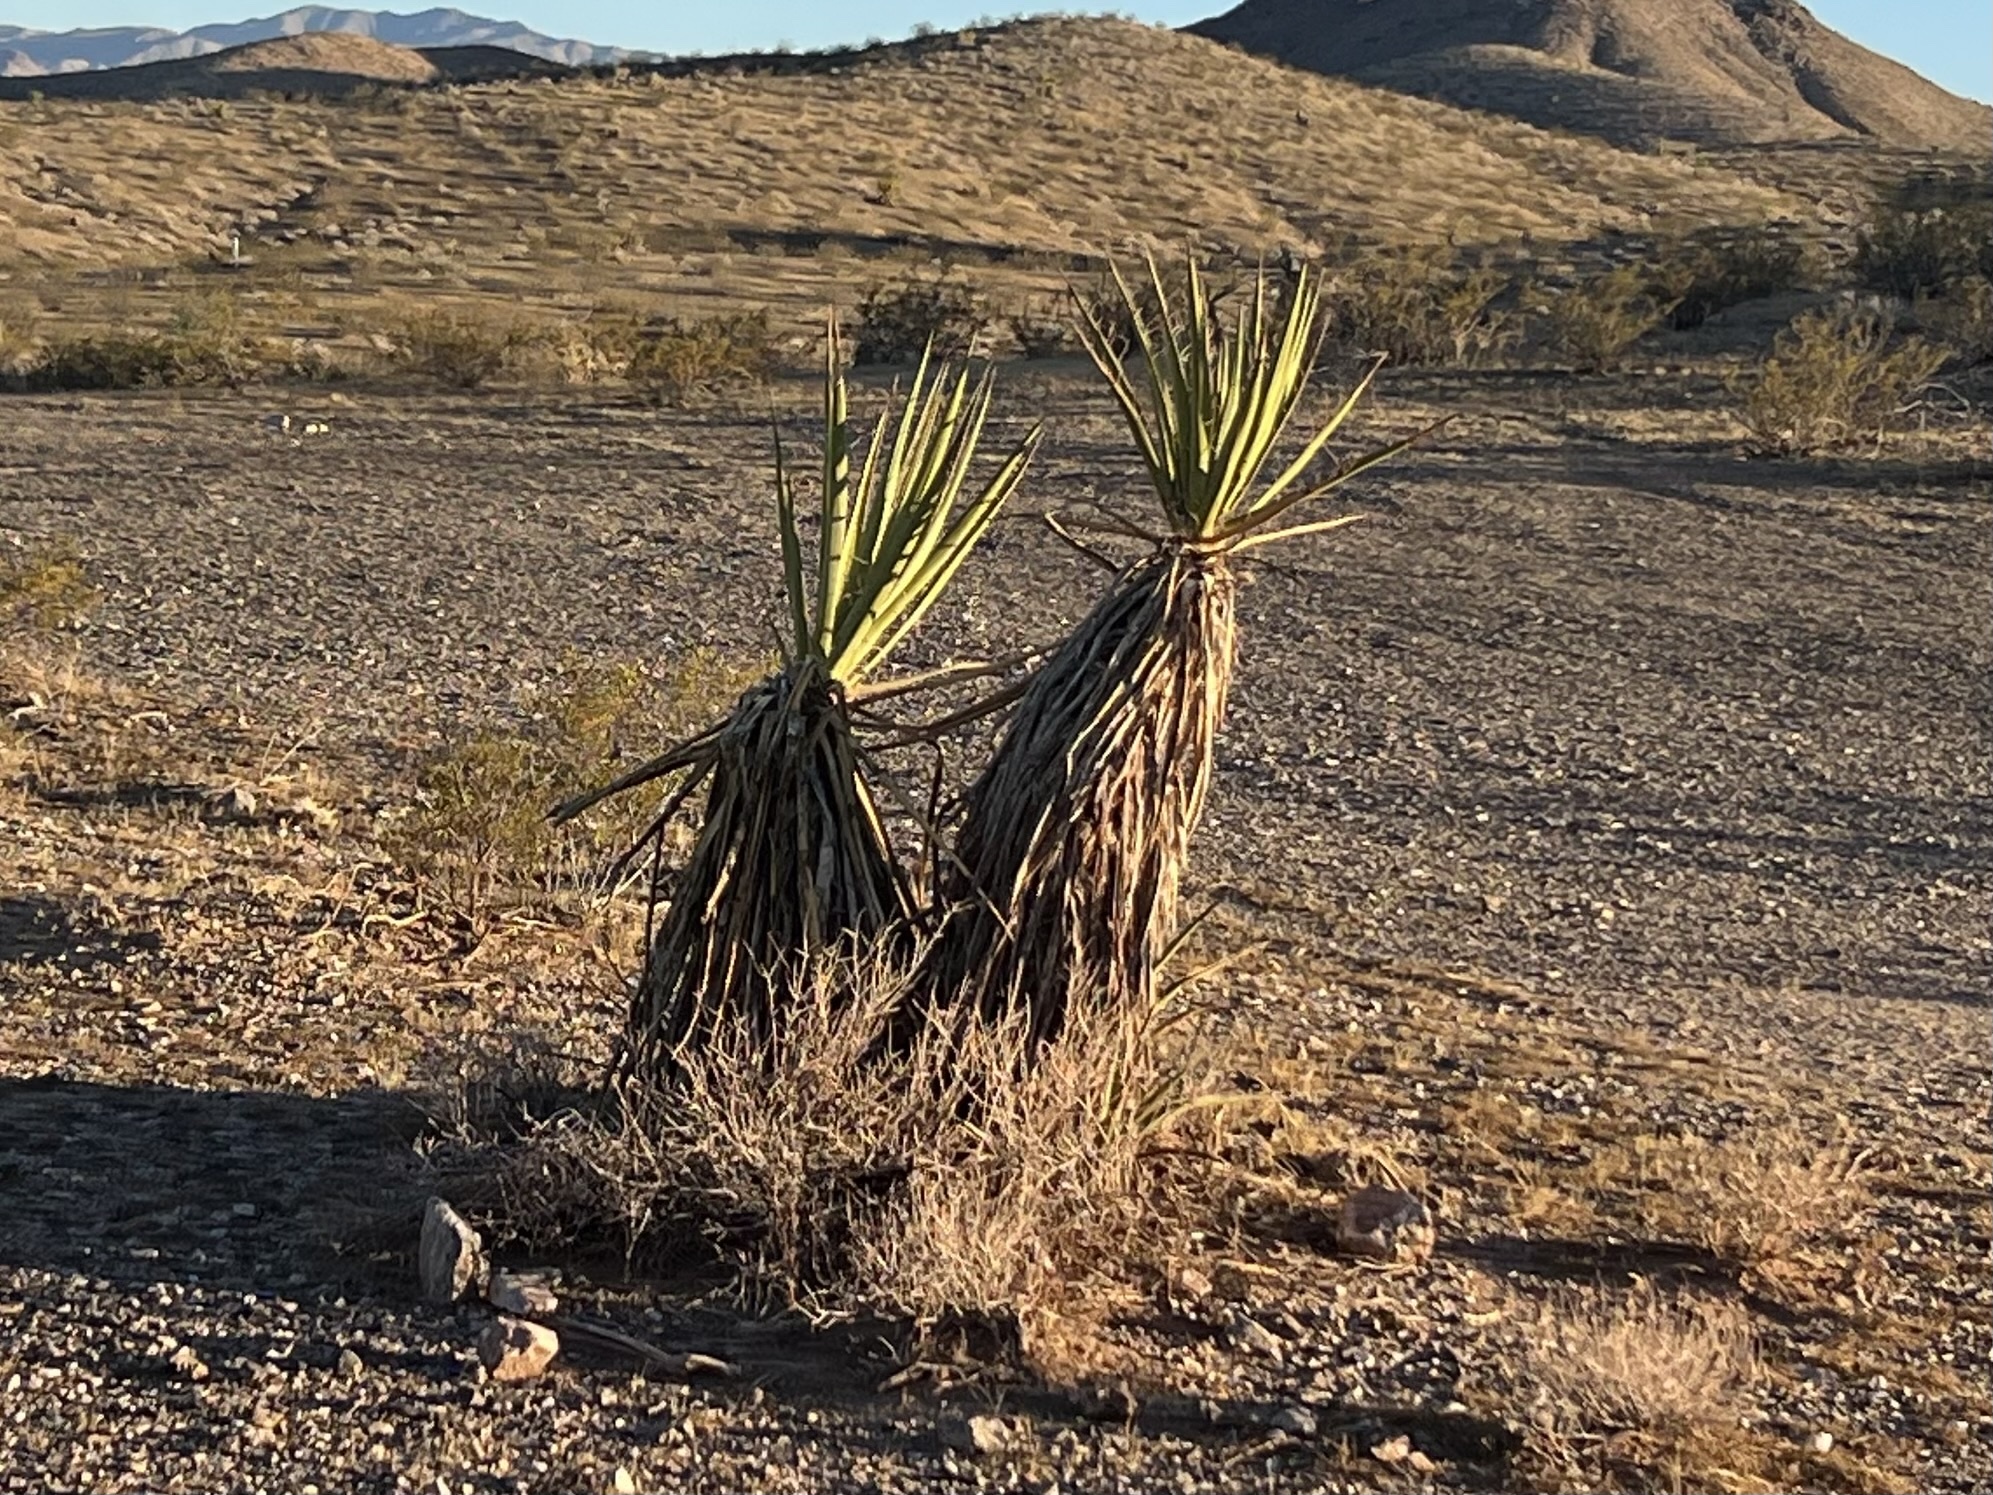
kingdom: Plantae
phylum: Tracheophyta
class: Liliopsida
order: Asparagales
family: Asparagaceae
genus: Yucca
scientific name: Yucca schidigera
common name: Mojave yucca
